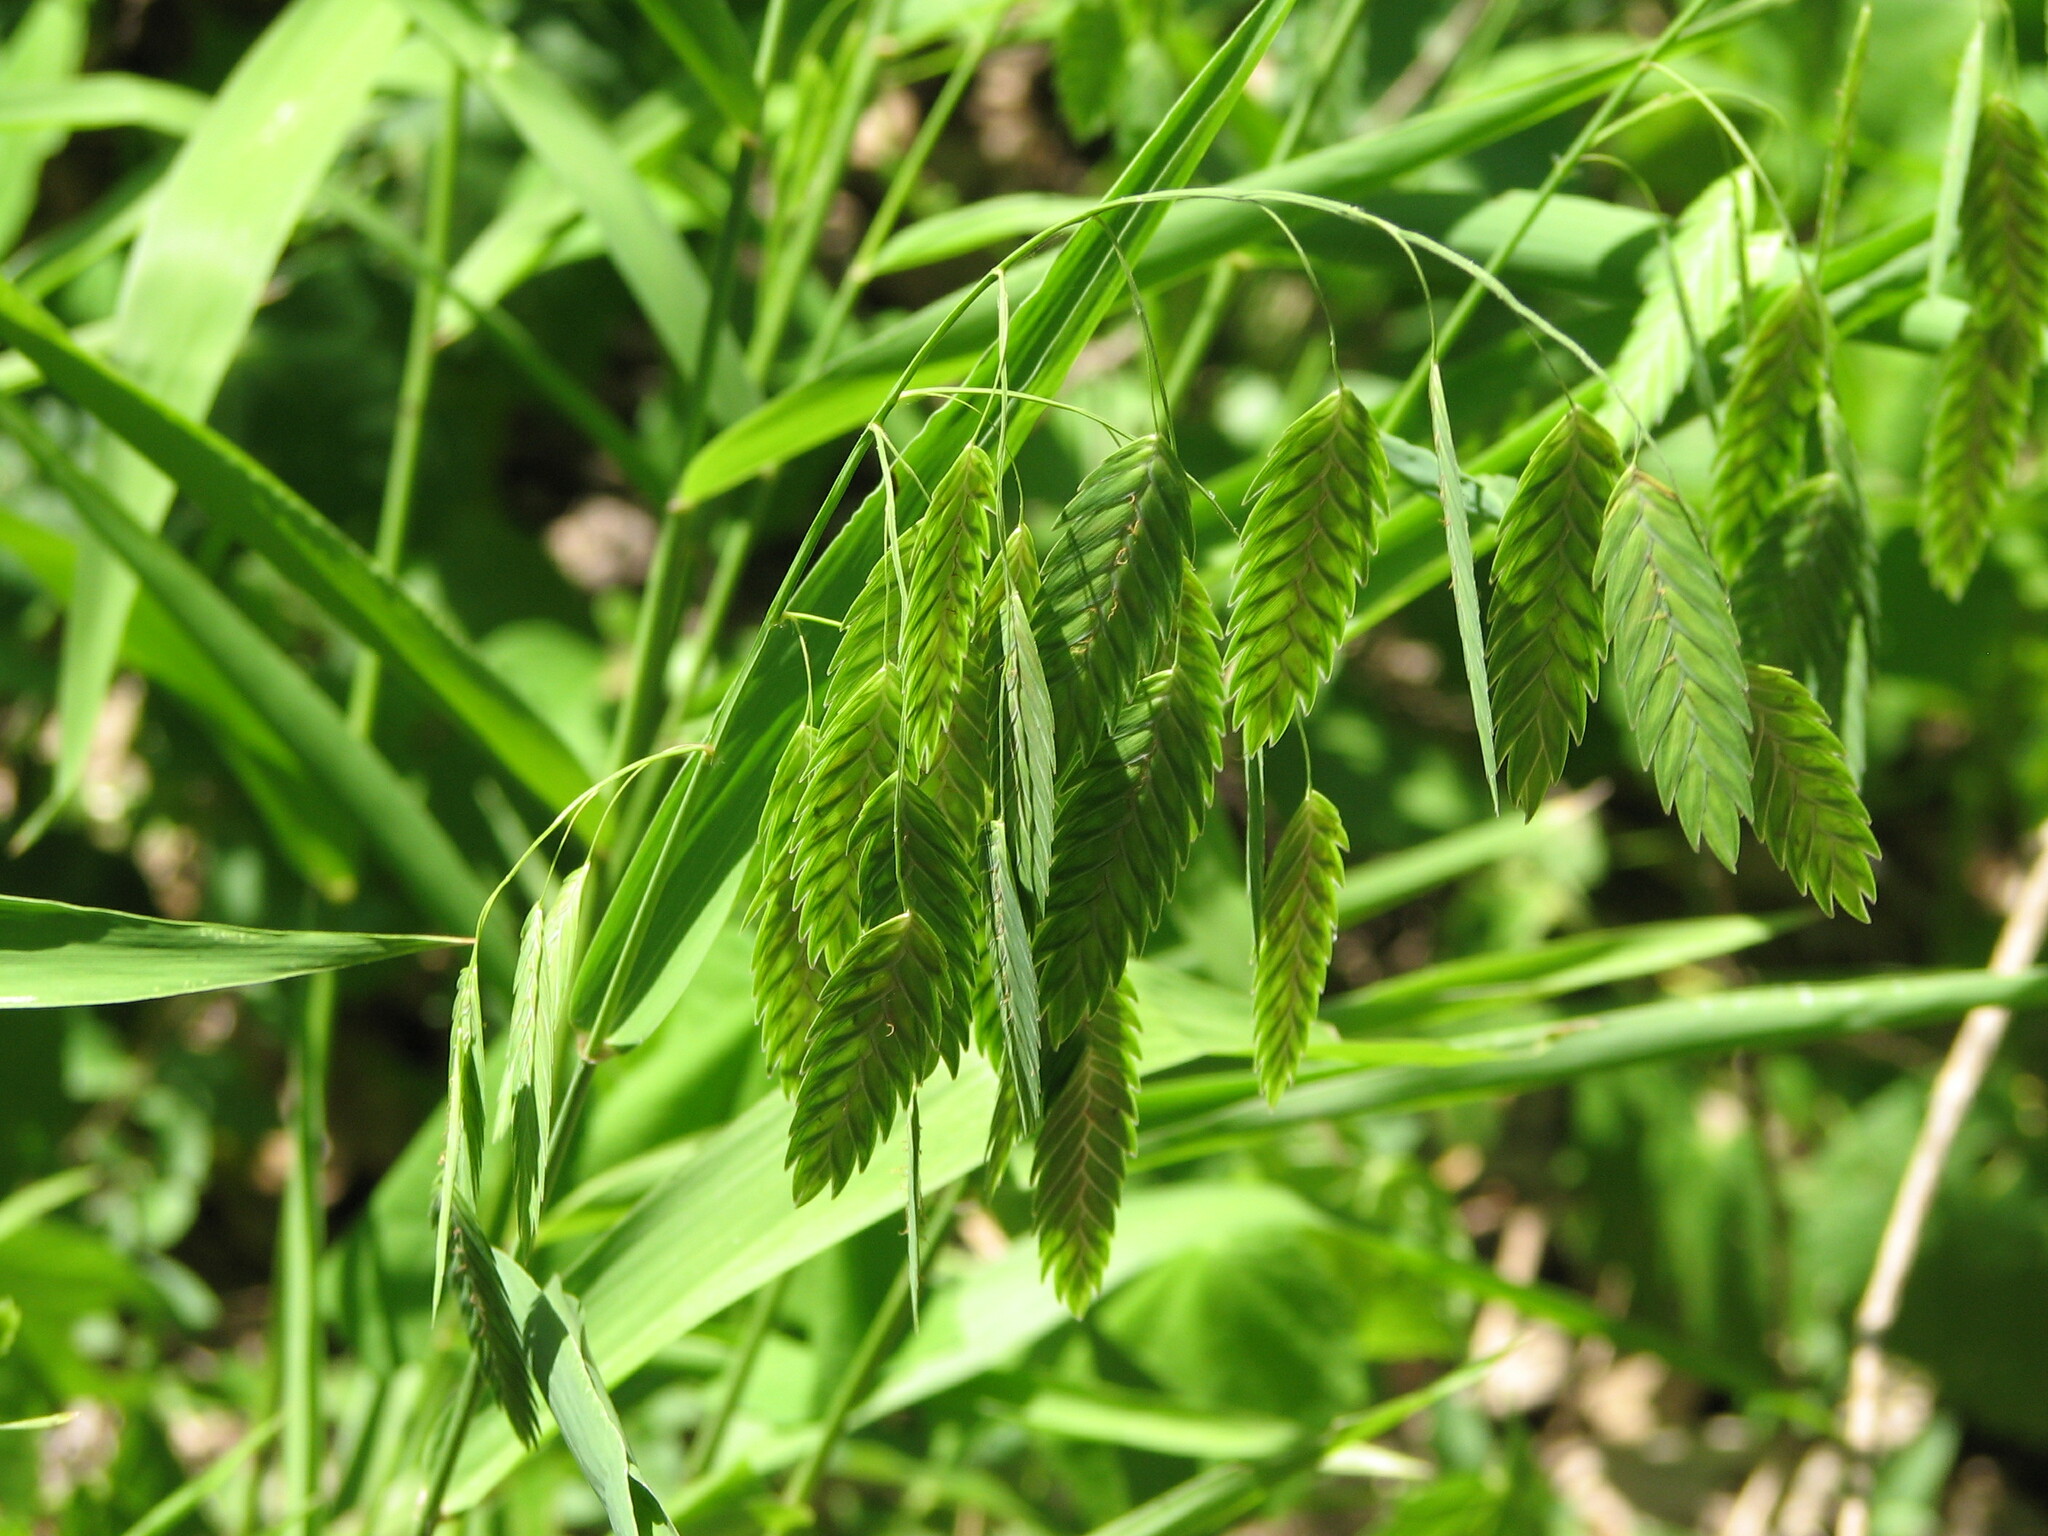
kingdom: Plantae
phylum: Tracheophyta
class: Liliopsida
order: Poales
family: Poaceae
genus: Chasmanthium
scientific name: Chasmanthium latifolium
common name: Broad-leaved chasmanthium
